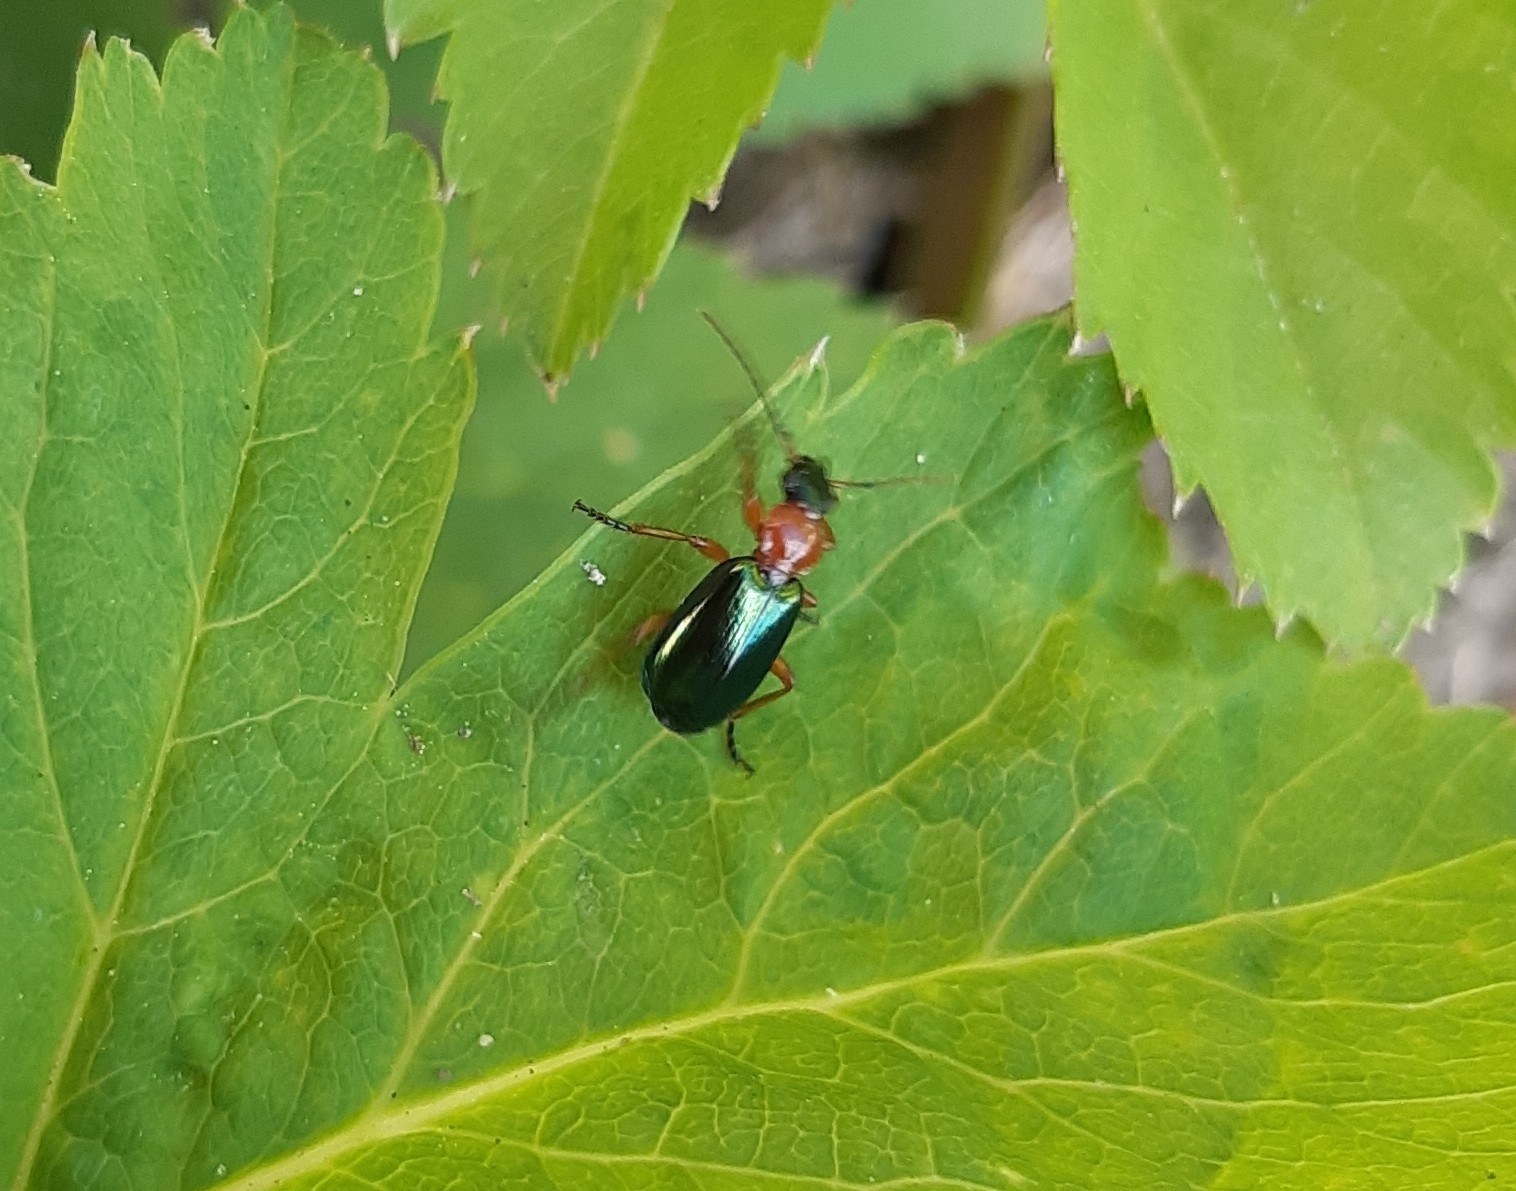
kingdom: Animalia
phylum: Arthropoda
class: Insecta
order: Coleoptera
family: Carabidae
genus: Lebia
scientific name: Lebia chlorocephala
